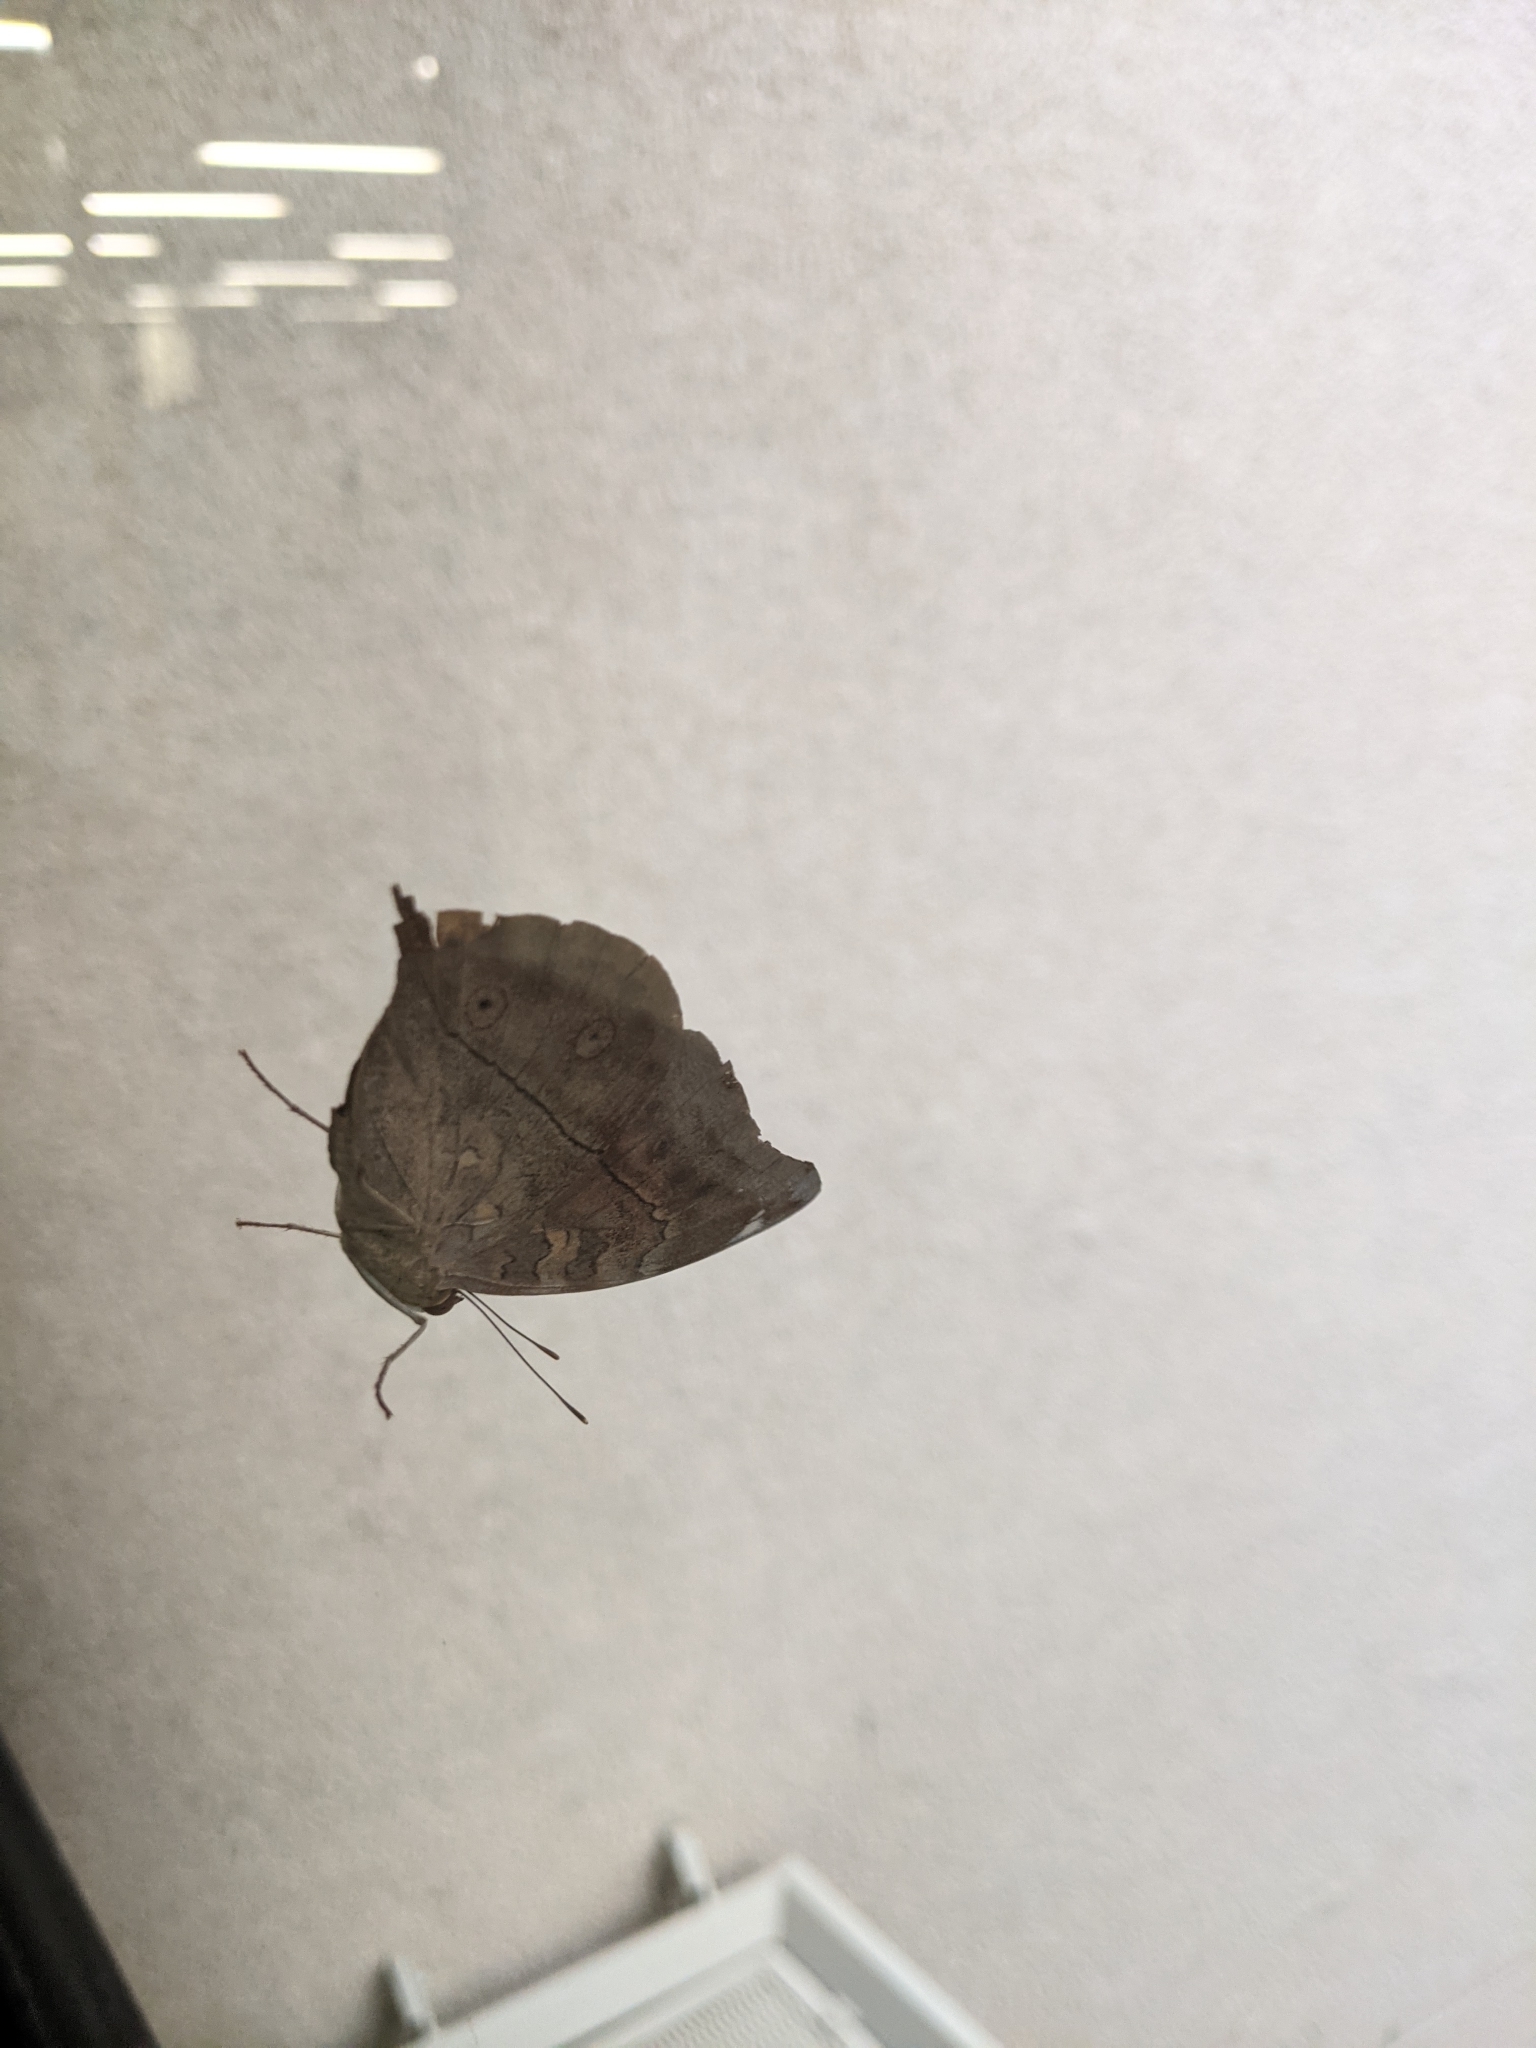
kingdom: Animalia
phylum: Arthropoda
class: Insecta
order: Lepidoptera
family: Nymphalidae
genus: Doleschallia
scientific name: Doleschallia bisaltide
